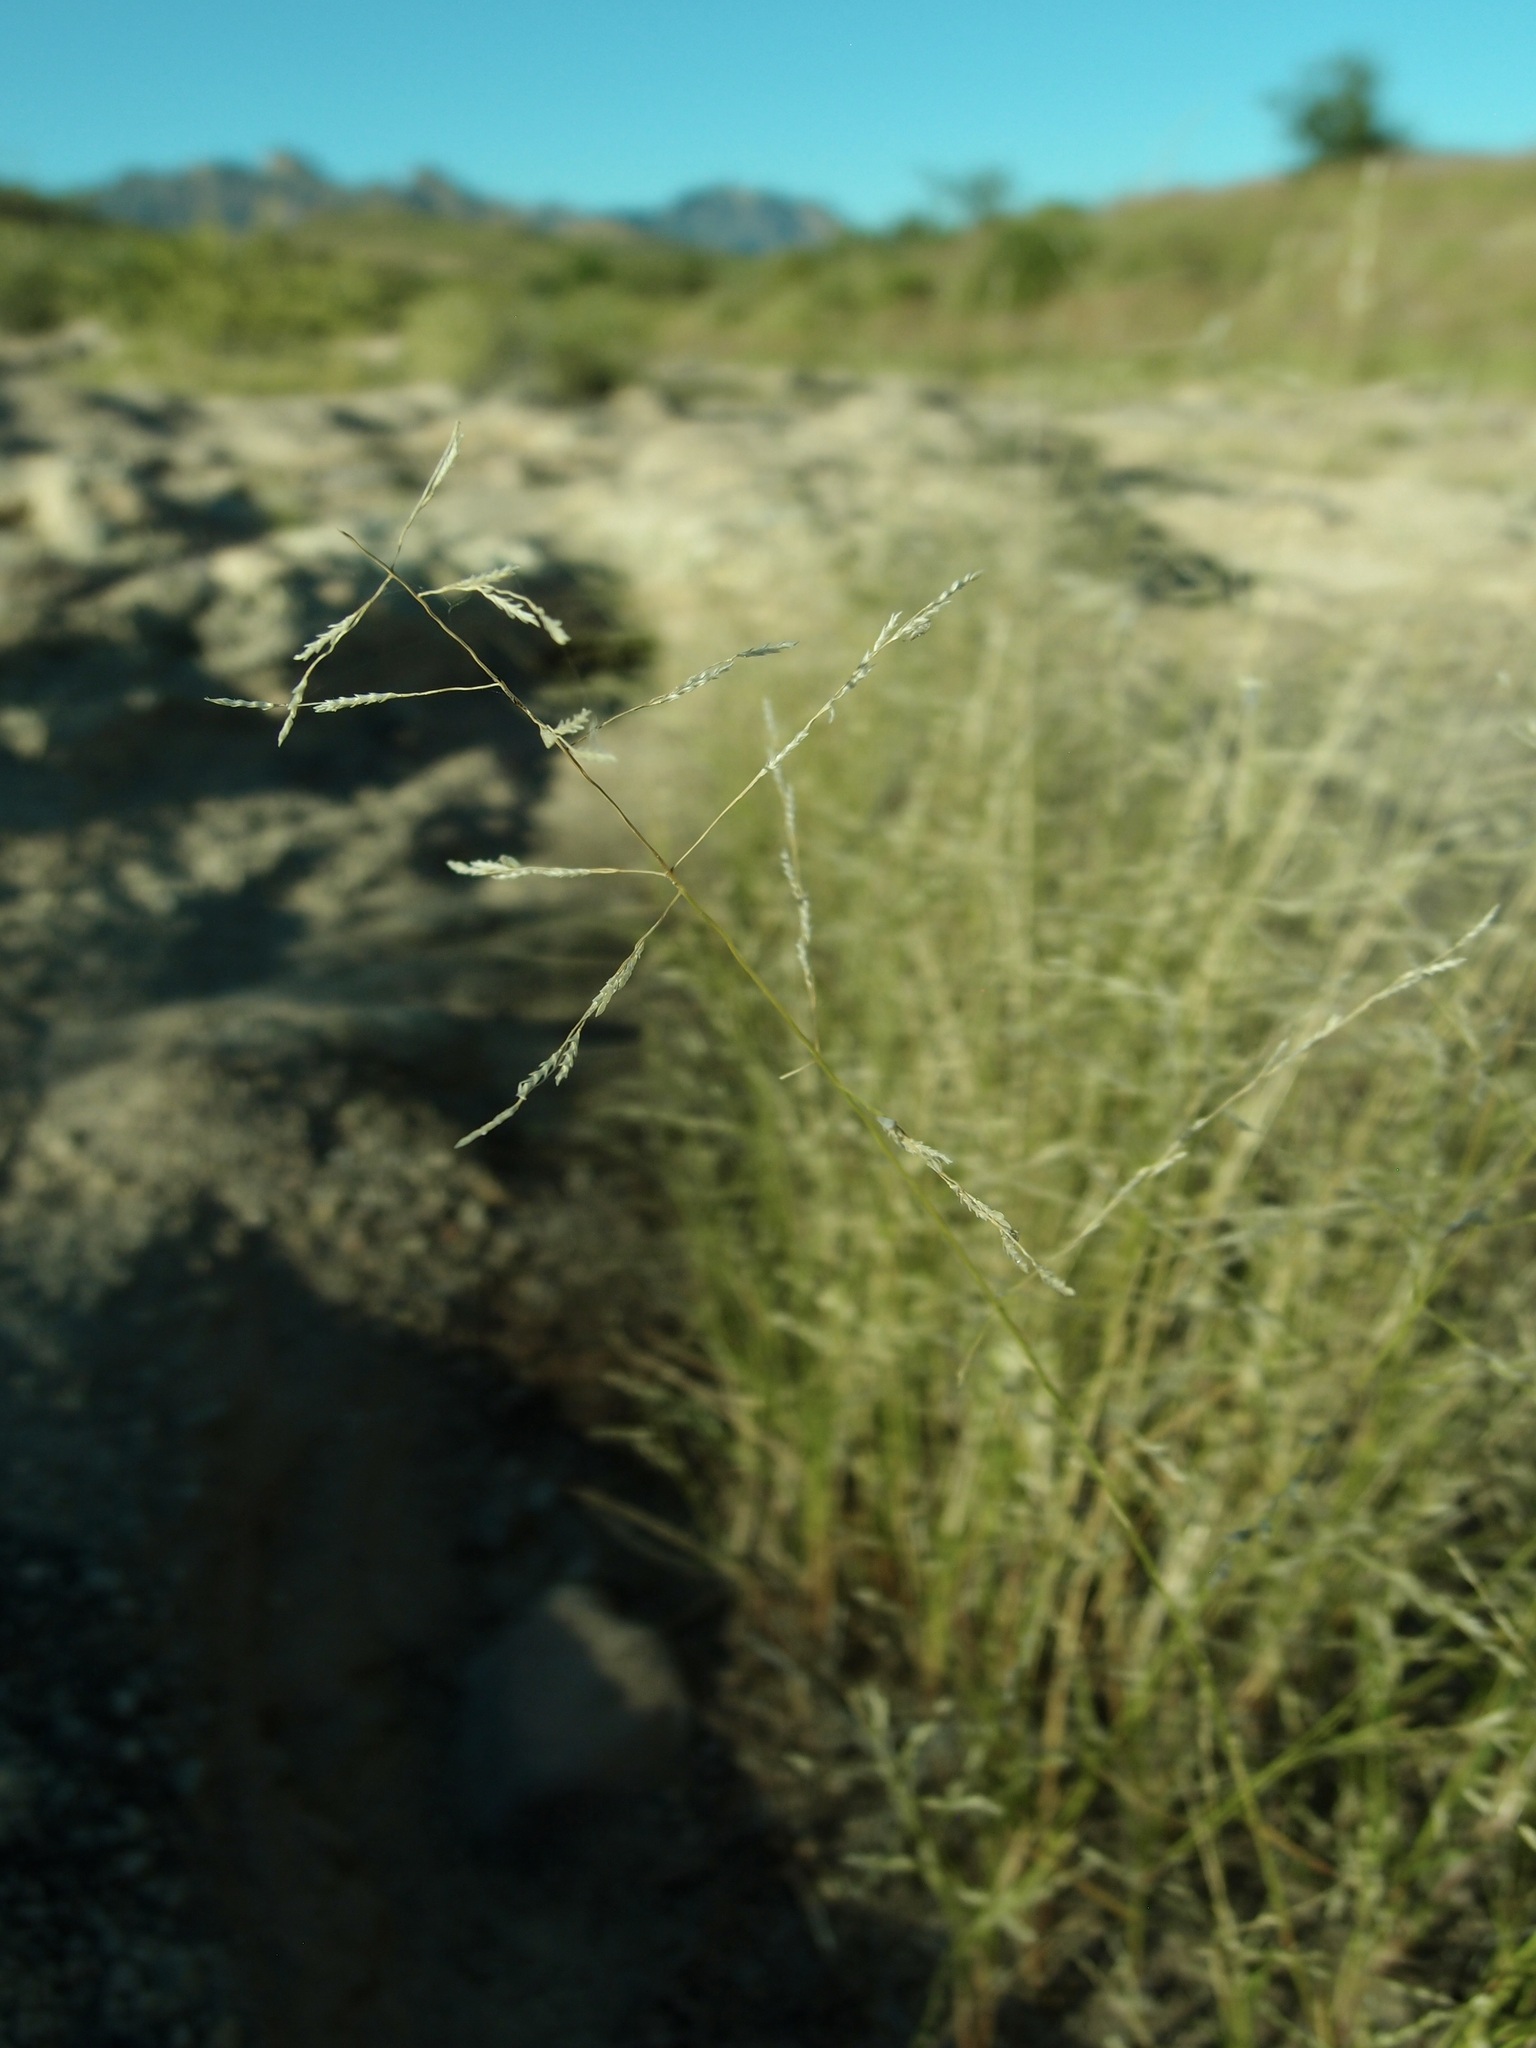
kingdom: Plantae
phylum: Tracheophyta
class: Liliopsida
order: Poales
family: Poaceae
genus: Eragrostis
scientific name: Eragrostis pectinacea
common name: Tufted lovegrass
